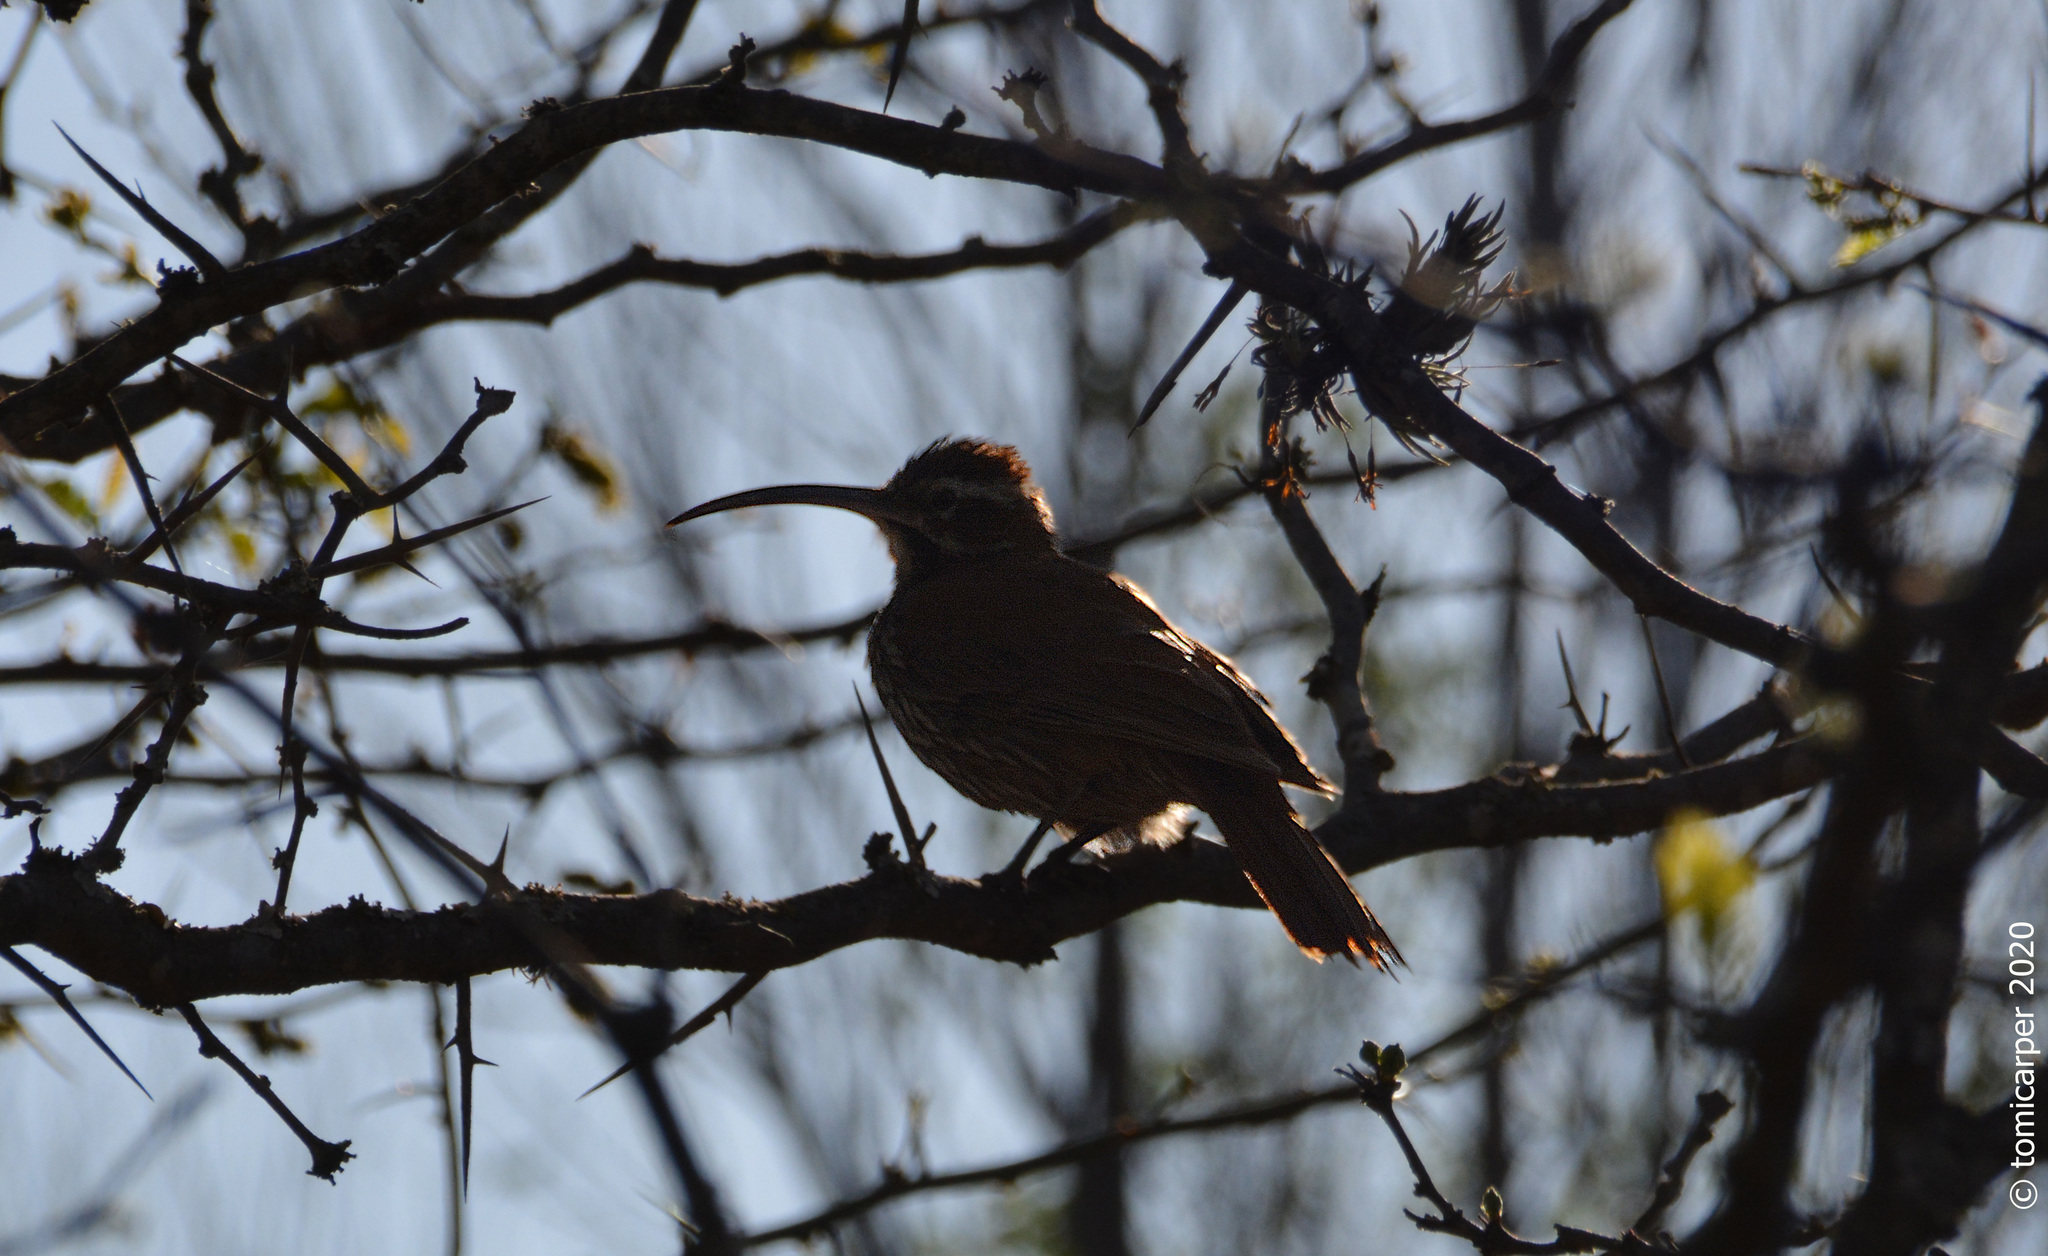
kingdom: Animalia
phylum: Chordata
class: Aves
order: Passeriformes
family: Furnariidae
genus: Drymornis
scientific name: Drymornis bridgesii
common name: Scimitar-billed woodcreeper
